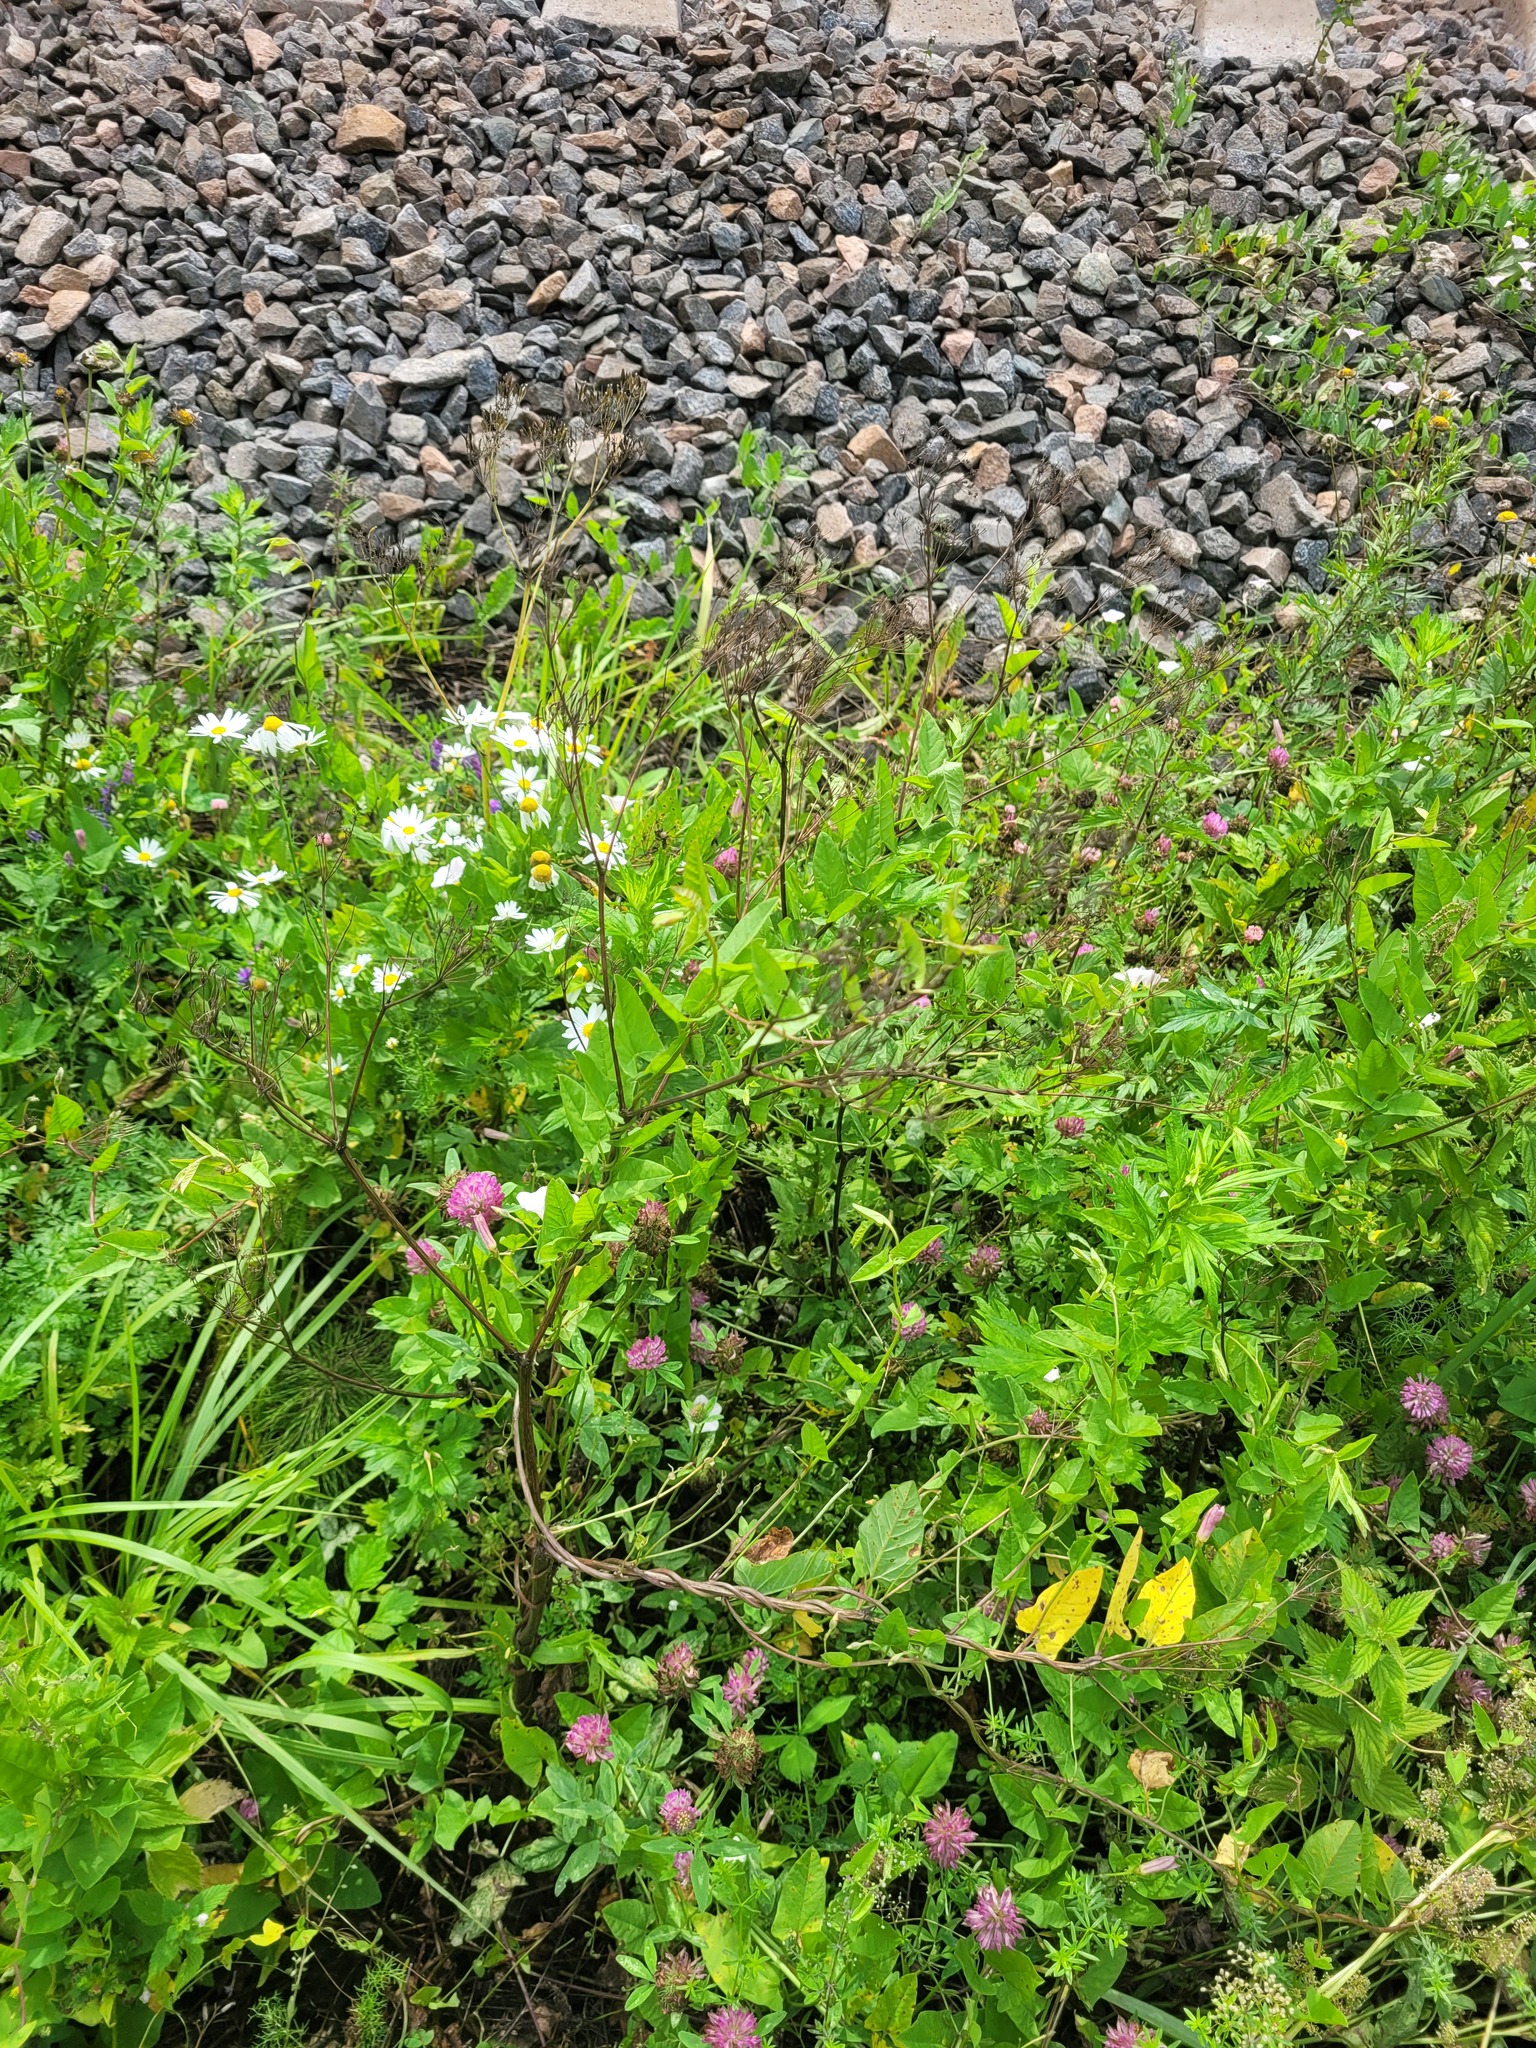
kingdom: Plantae
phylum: Tracheophyta
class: Magnoliopsida
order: Apiales
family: Apiaceae
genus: Anthriscus
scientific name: Anthriscus sylvestris
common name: Cow parsley
